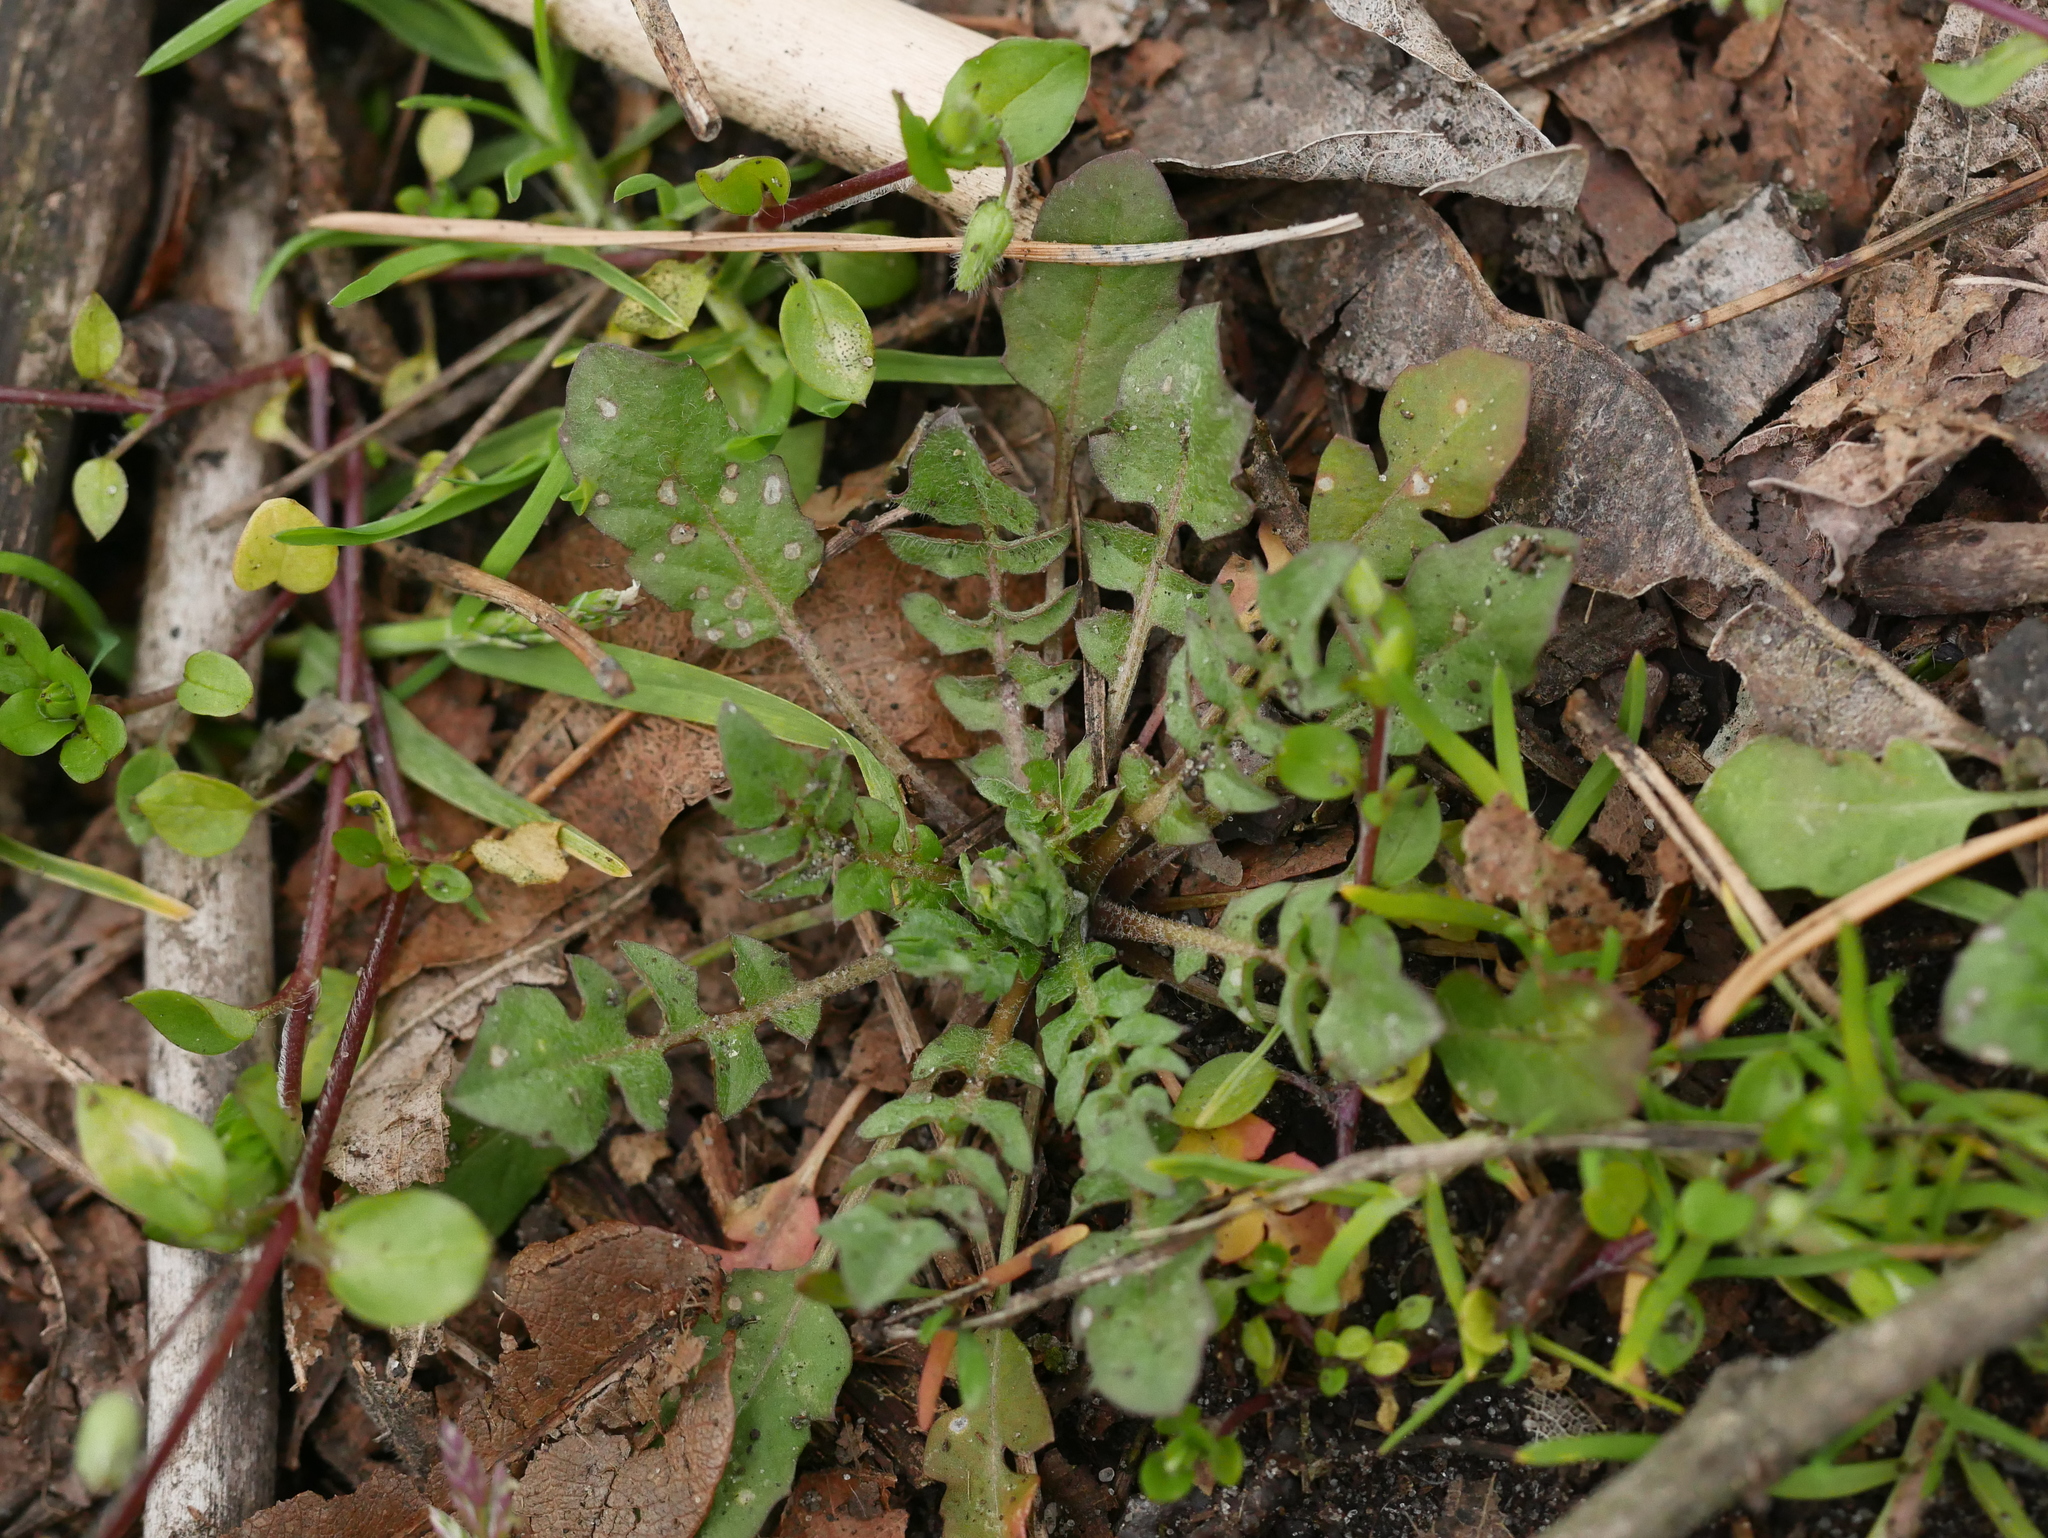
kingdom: Plantae
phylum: Tracheophyta
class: Magnoliopsida
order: Brassicales
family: Brassicaceae
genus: Capsella
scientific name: Capsella bursa-pastoris
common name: Shepherd's purse
